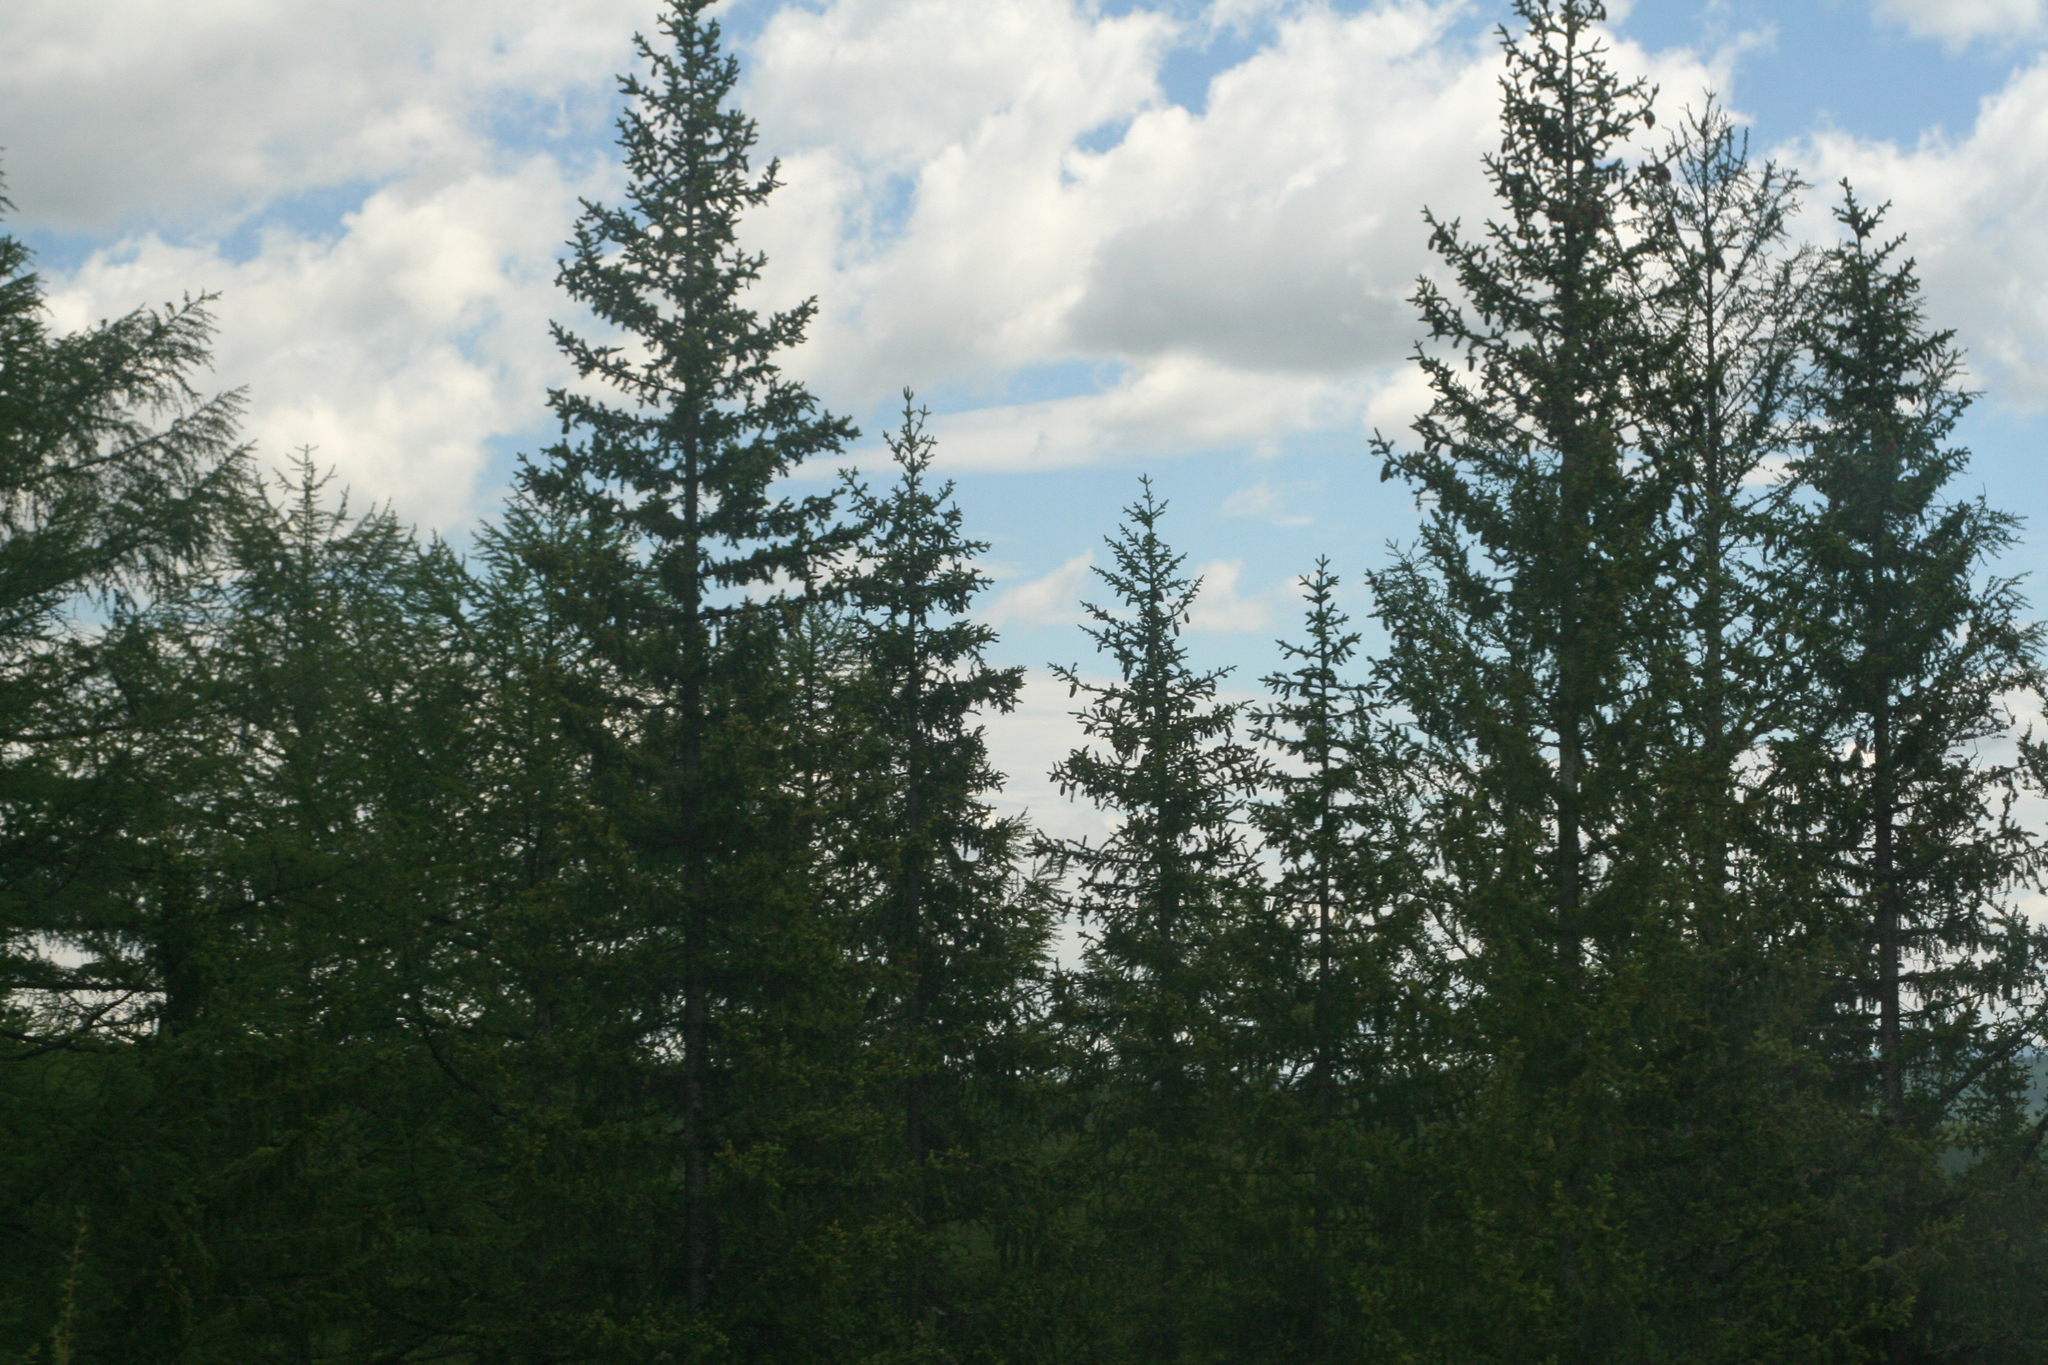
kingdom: Plantae
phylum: Tracheophyta
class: Pinopsida
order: Pinales
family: Pinaceae
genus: Picea
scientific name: Picea obovata
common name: Siberian spruce
